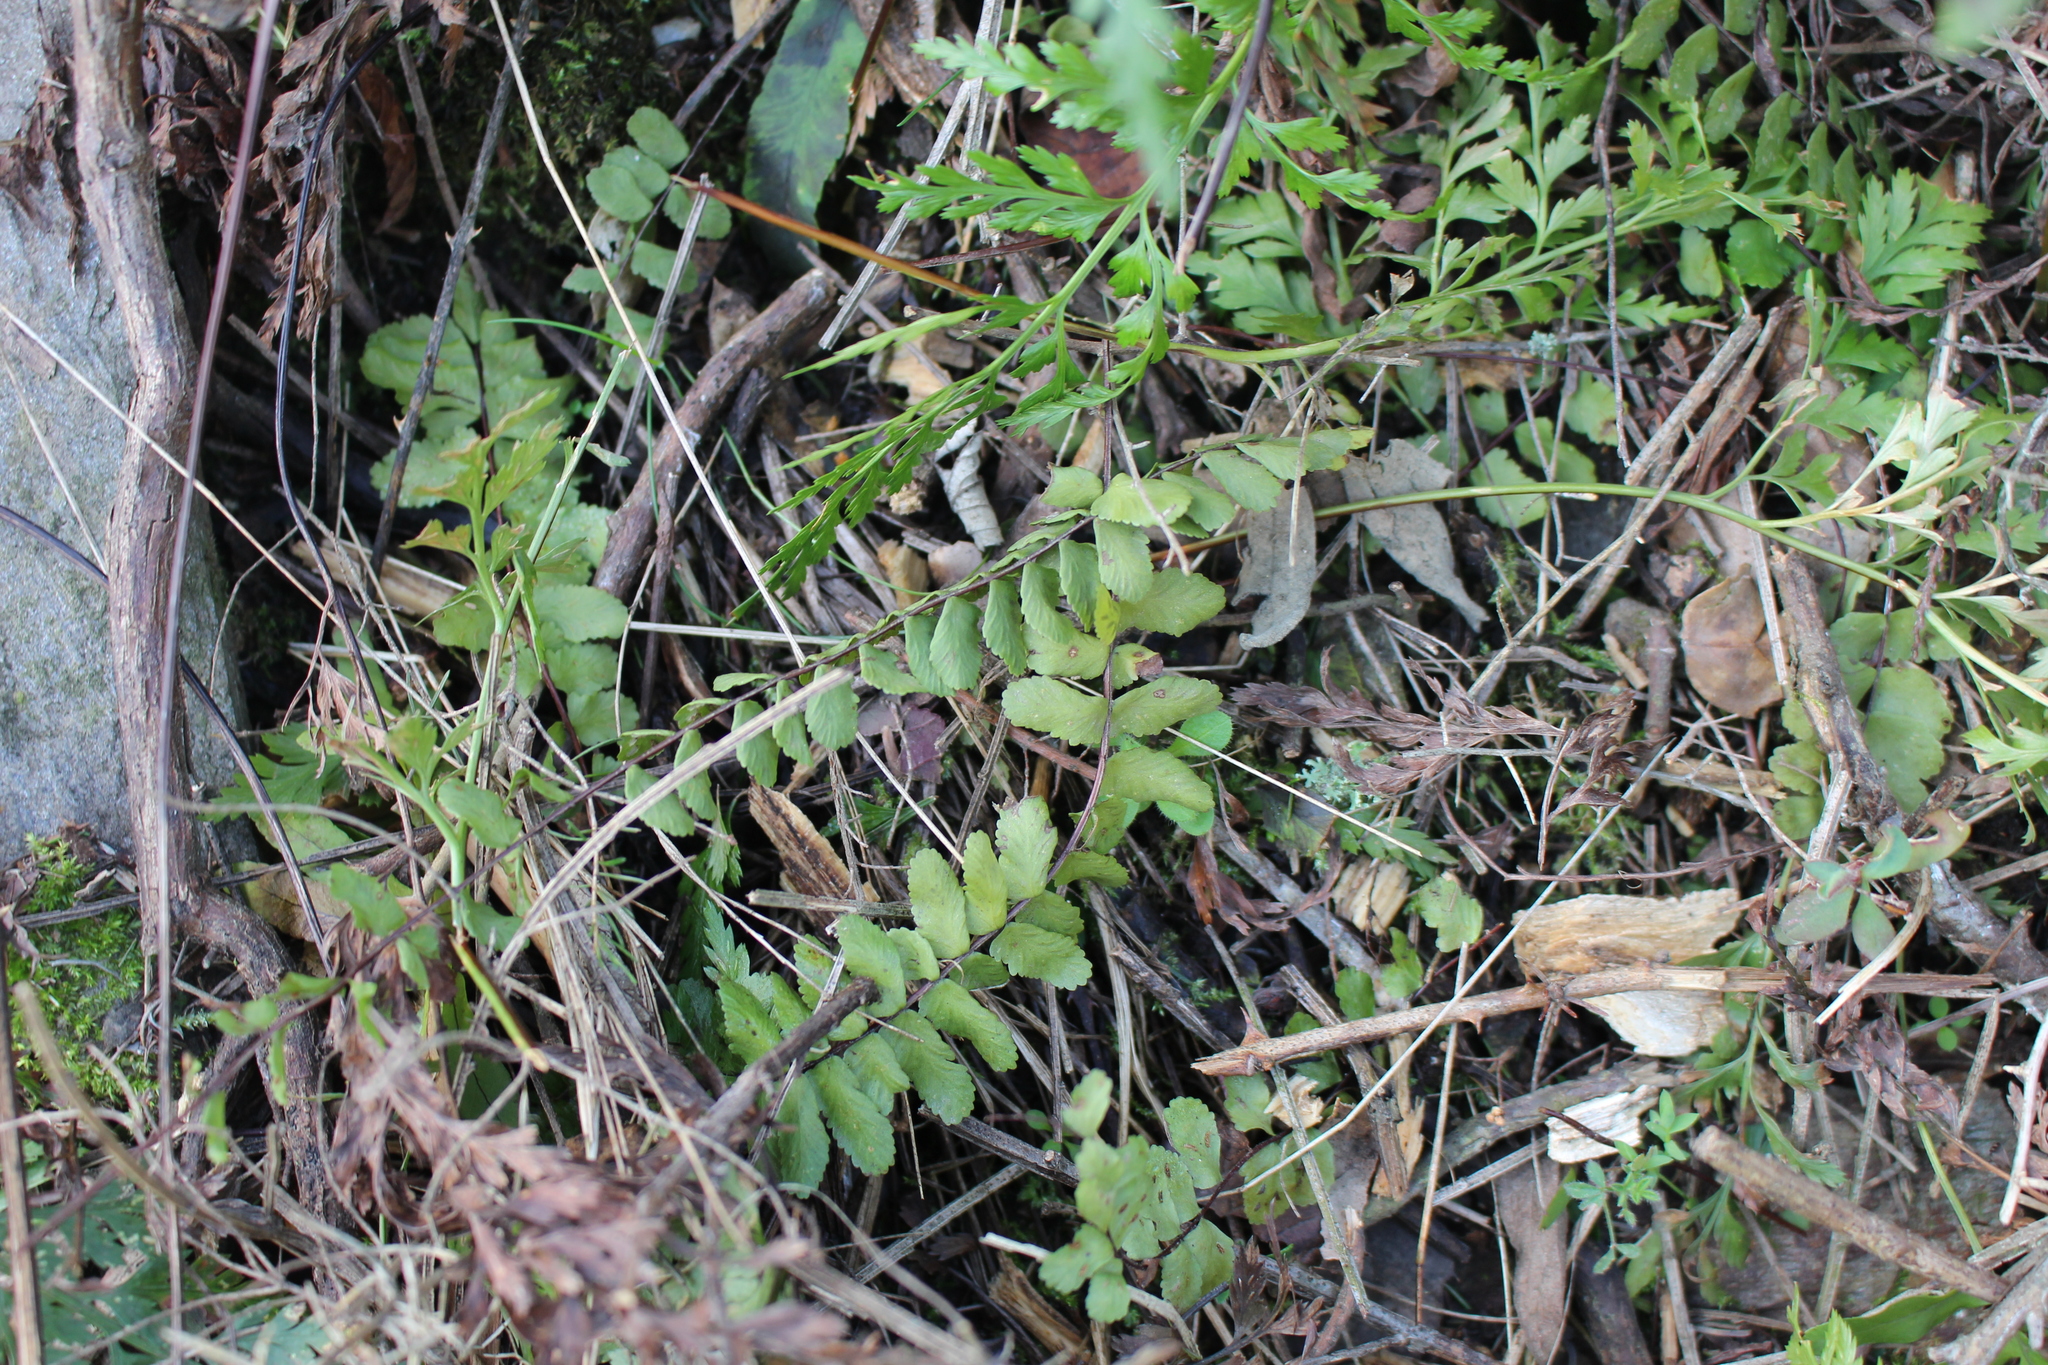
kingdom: Plantae
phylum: Tracheophyta
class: Polypodiopsida
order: Polypodiales
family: Aspleniaceae
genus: Asplenium
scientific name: Asplenium trichomanes
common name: Maidenhair spleenwort
